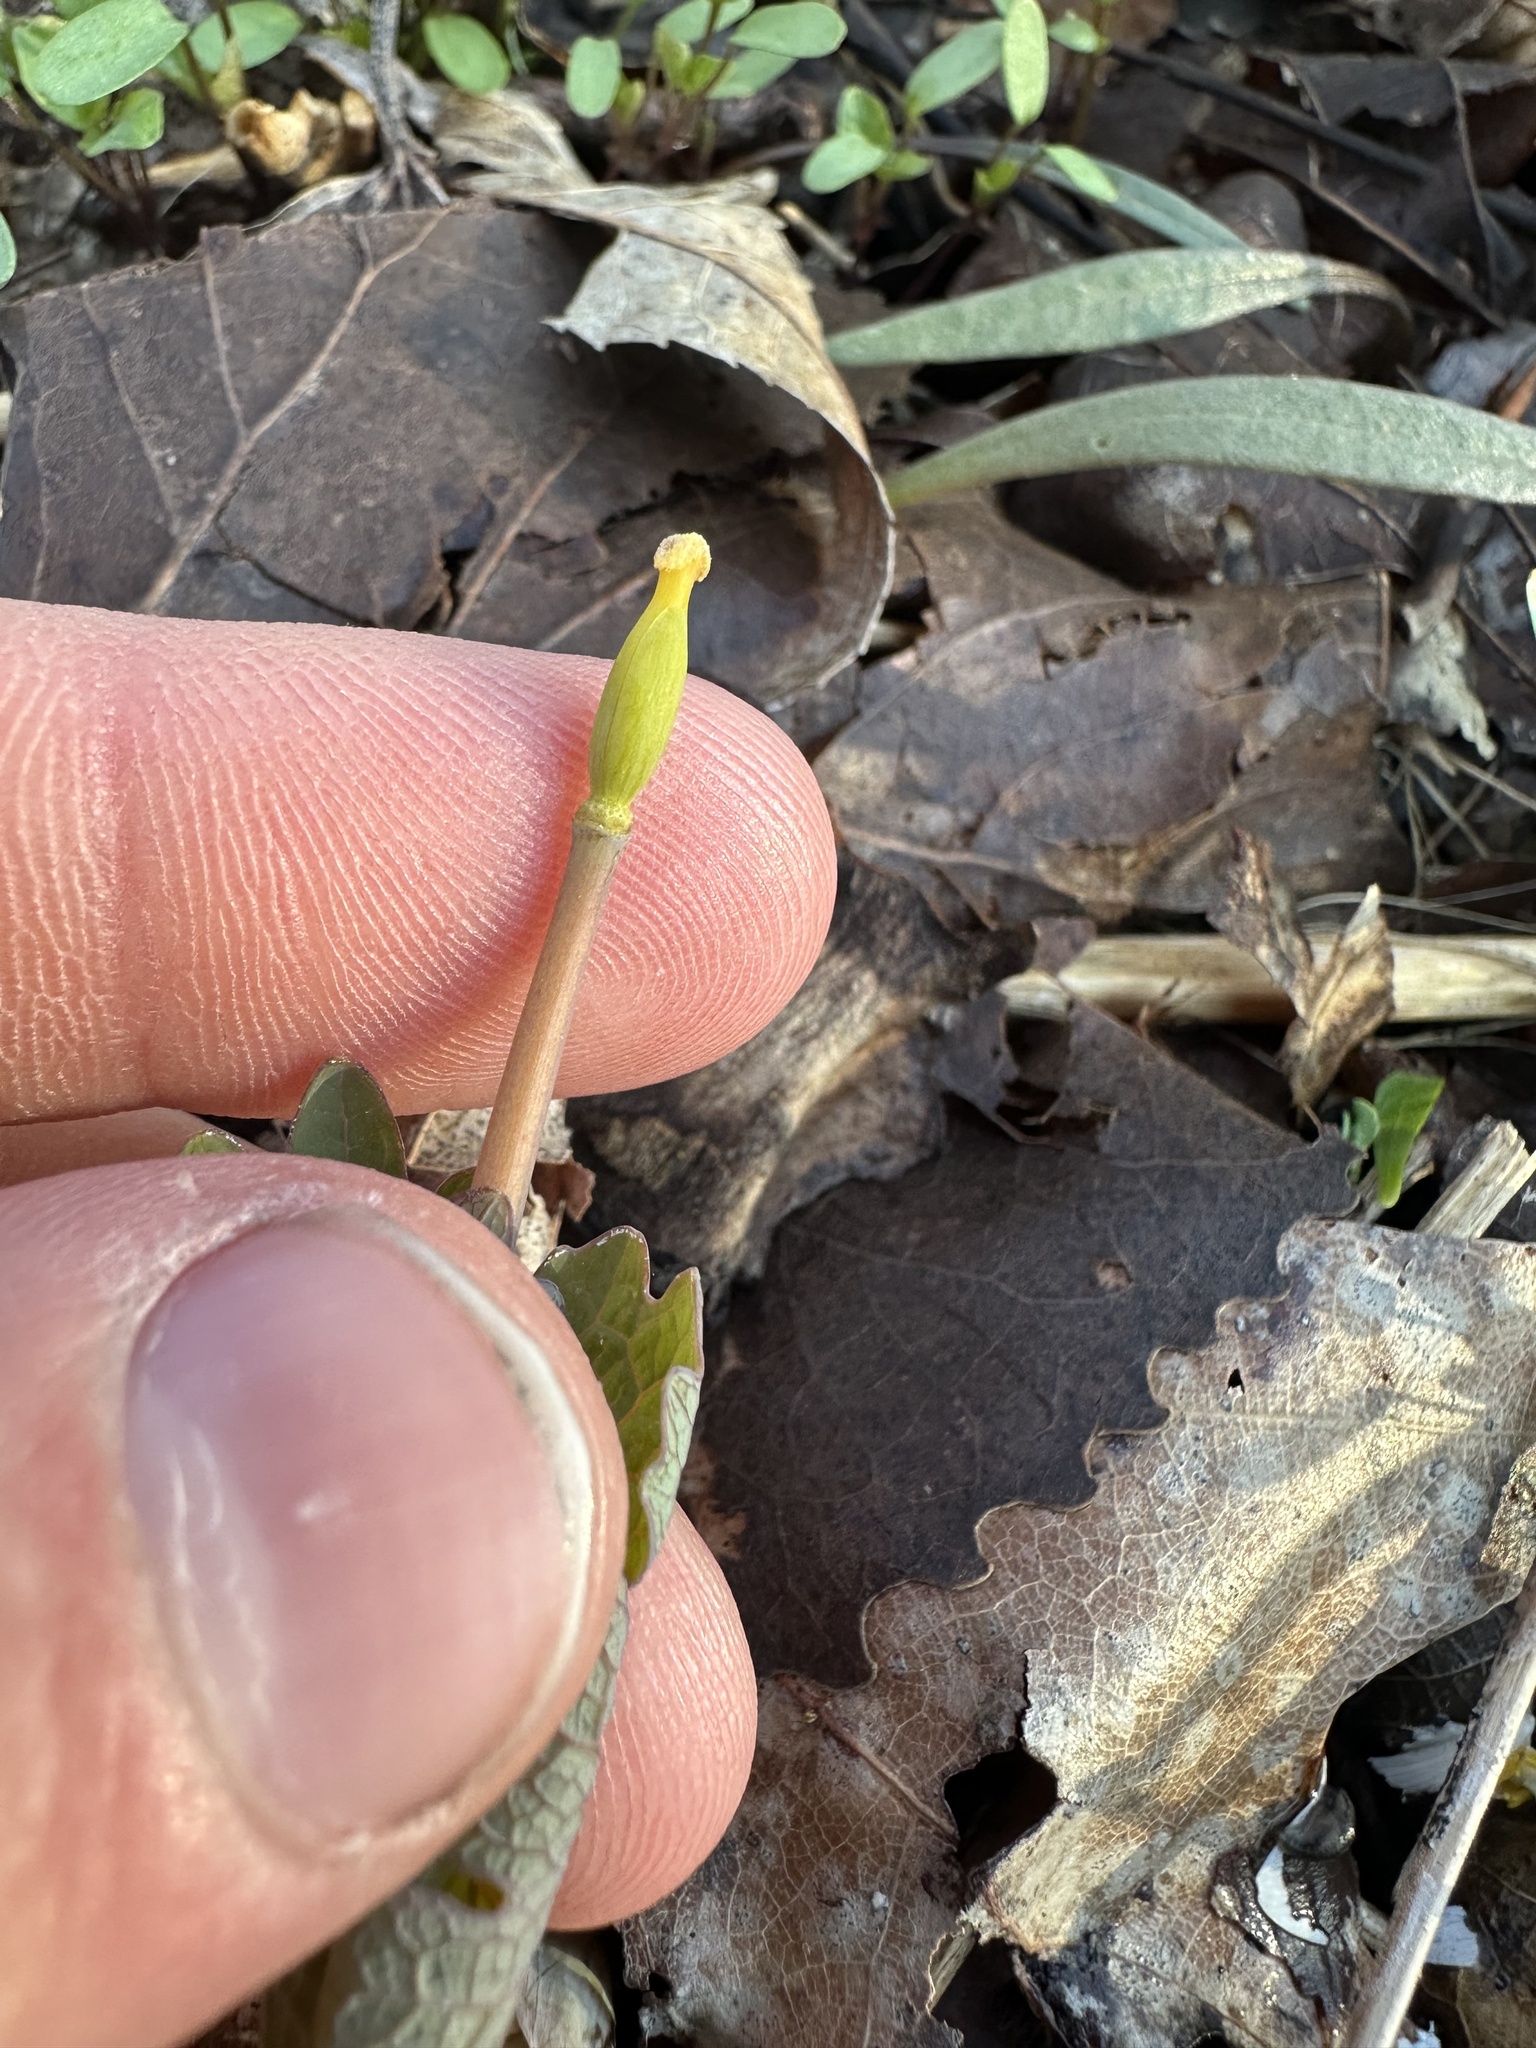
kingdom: Plantae
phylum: Tracheophyta
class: Magnoliopsida
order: Ranunculales
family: Papaveraceae
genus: Sanguinaria
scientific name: Sanguinaria canadensis
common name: Bloodroot
